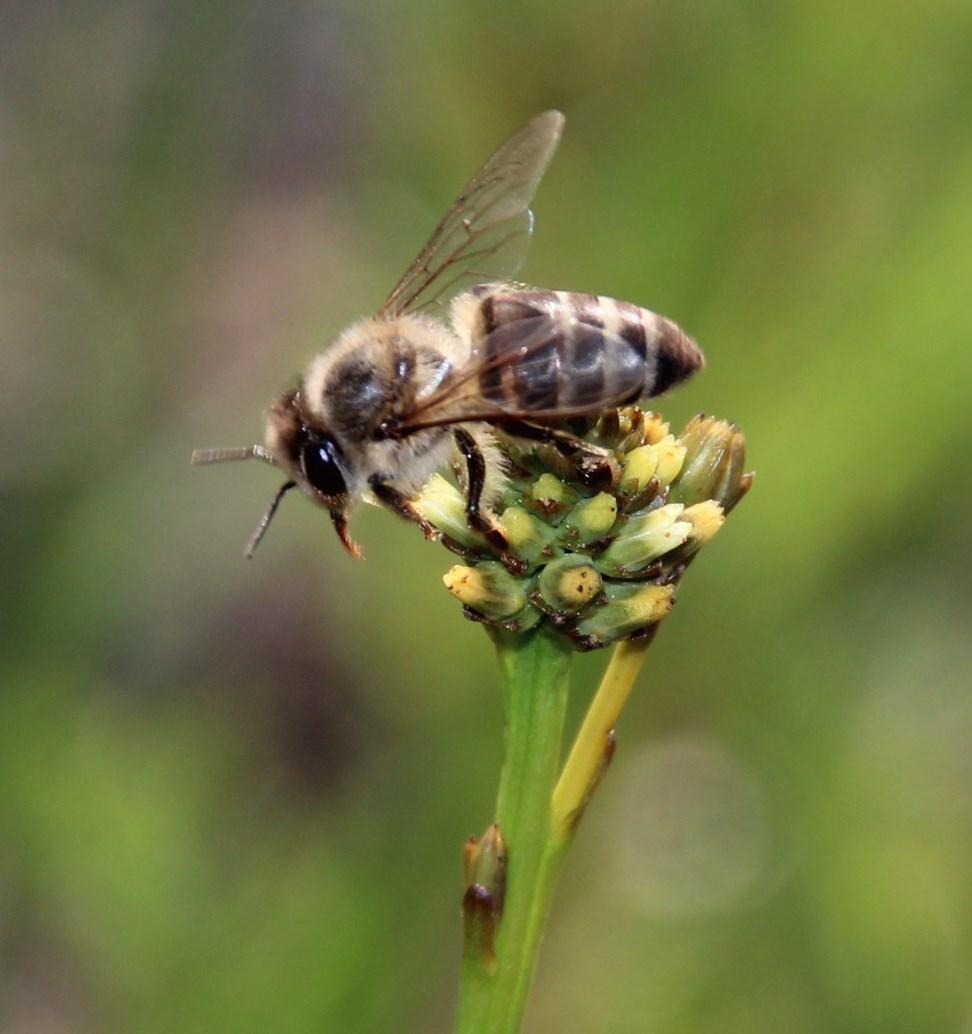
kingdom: Animalia
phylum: Arthropoda
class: Insecta
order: Hymenoptera
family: Apidae
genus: Apis
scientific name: Apis mellifera
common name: Honey bee
